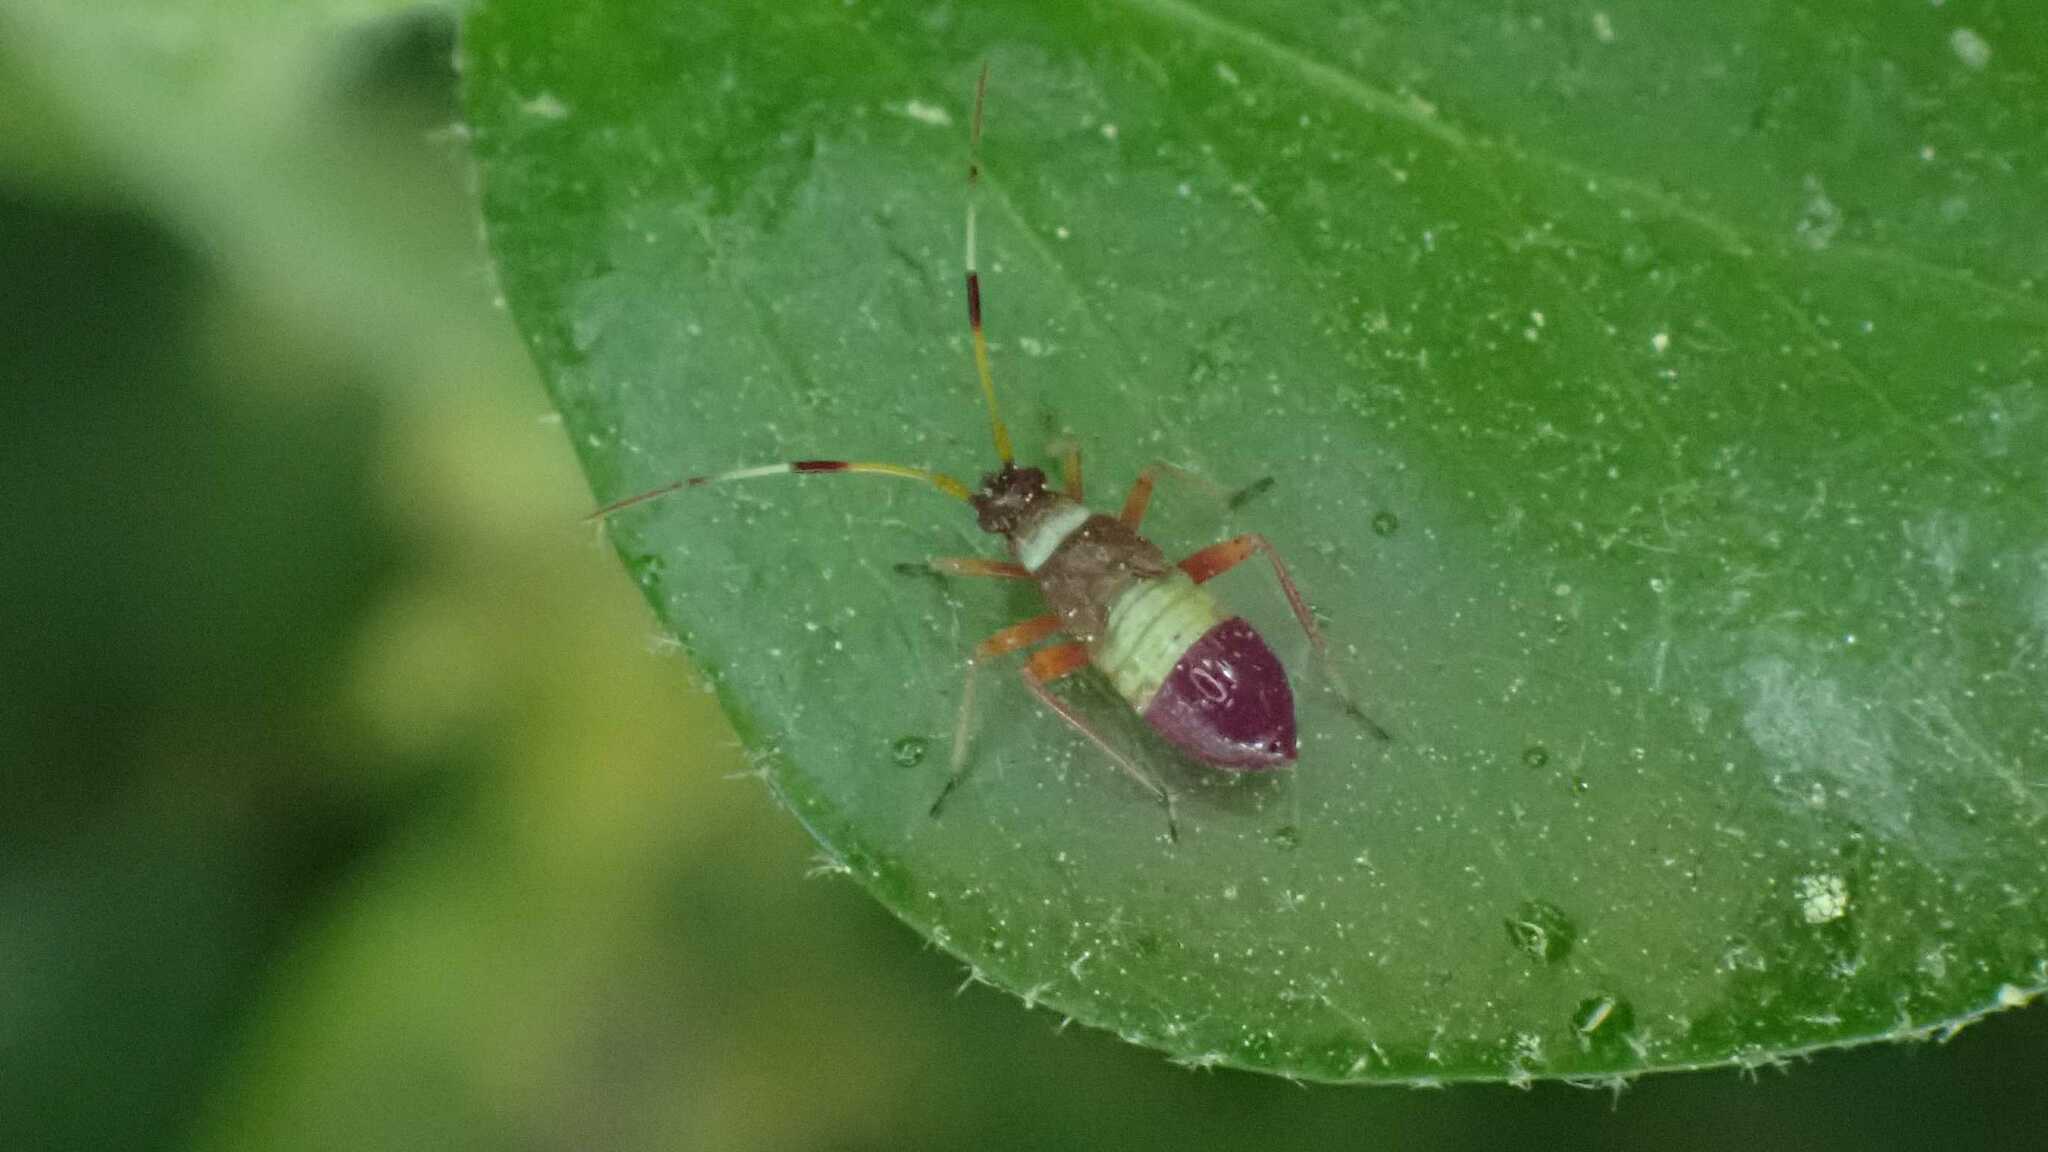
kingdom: Animalia
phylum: Arthropoda
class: Insecta
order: Hemiptera
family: Miridae
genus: Closterotomus
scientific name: Closterotomus biclavatus
